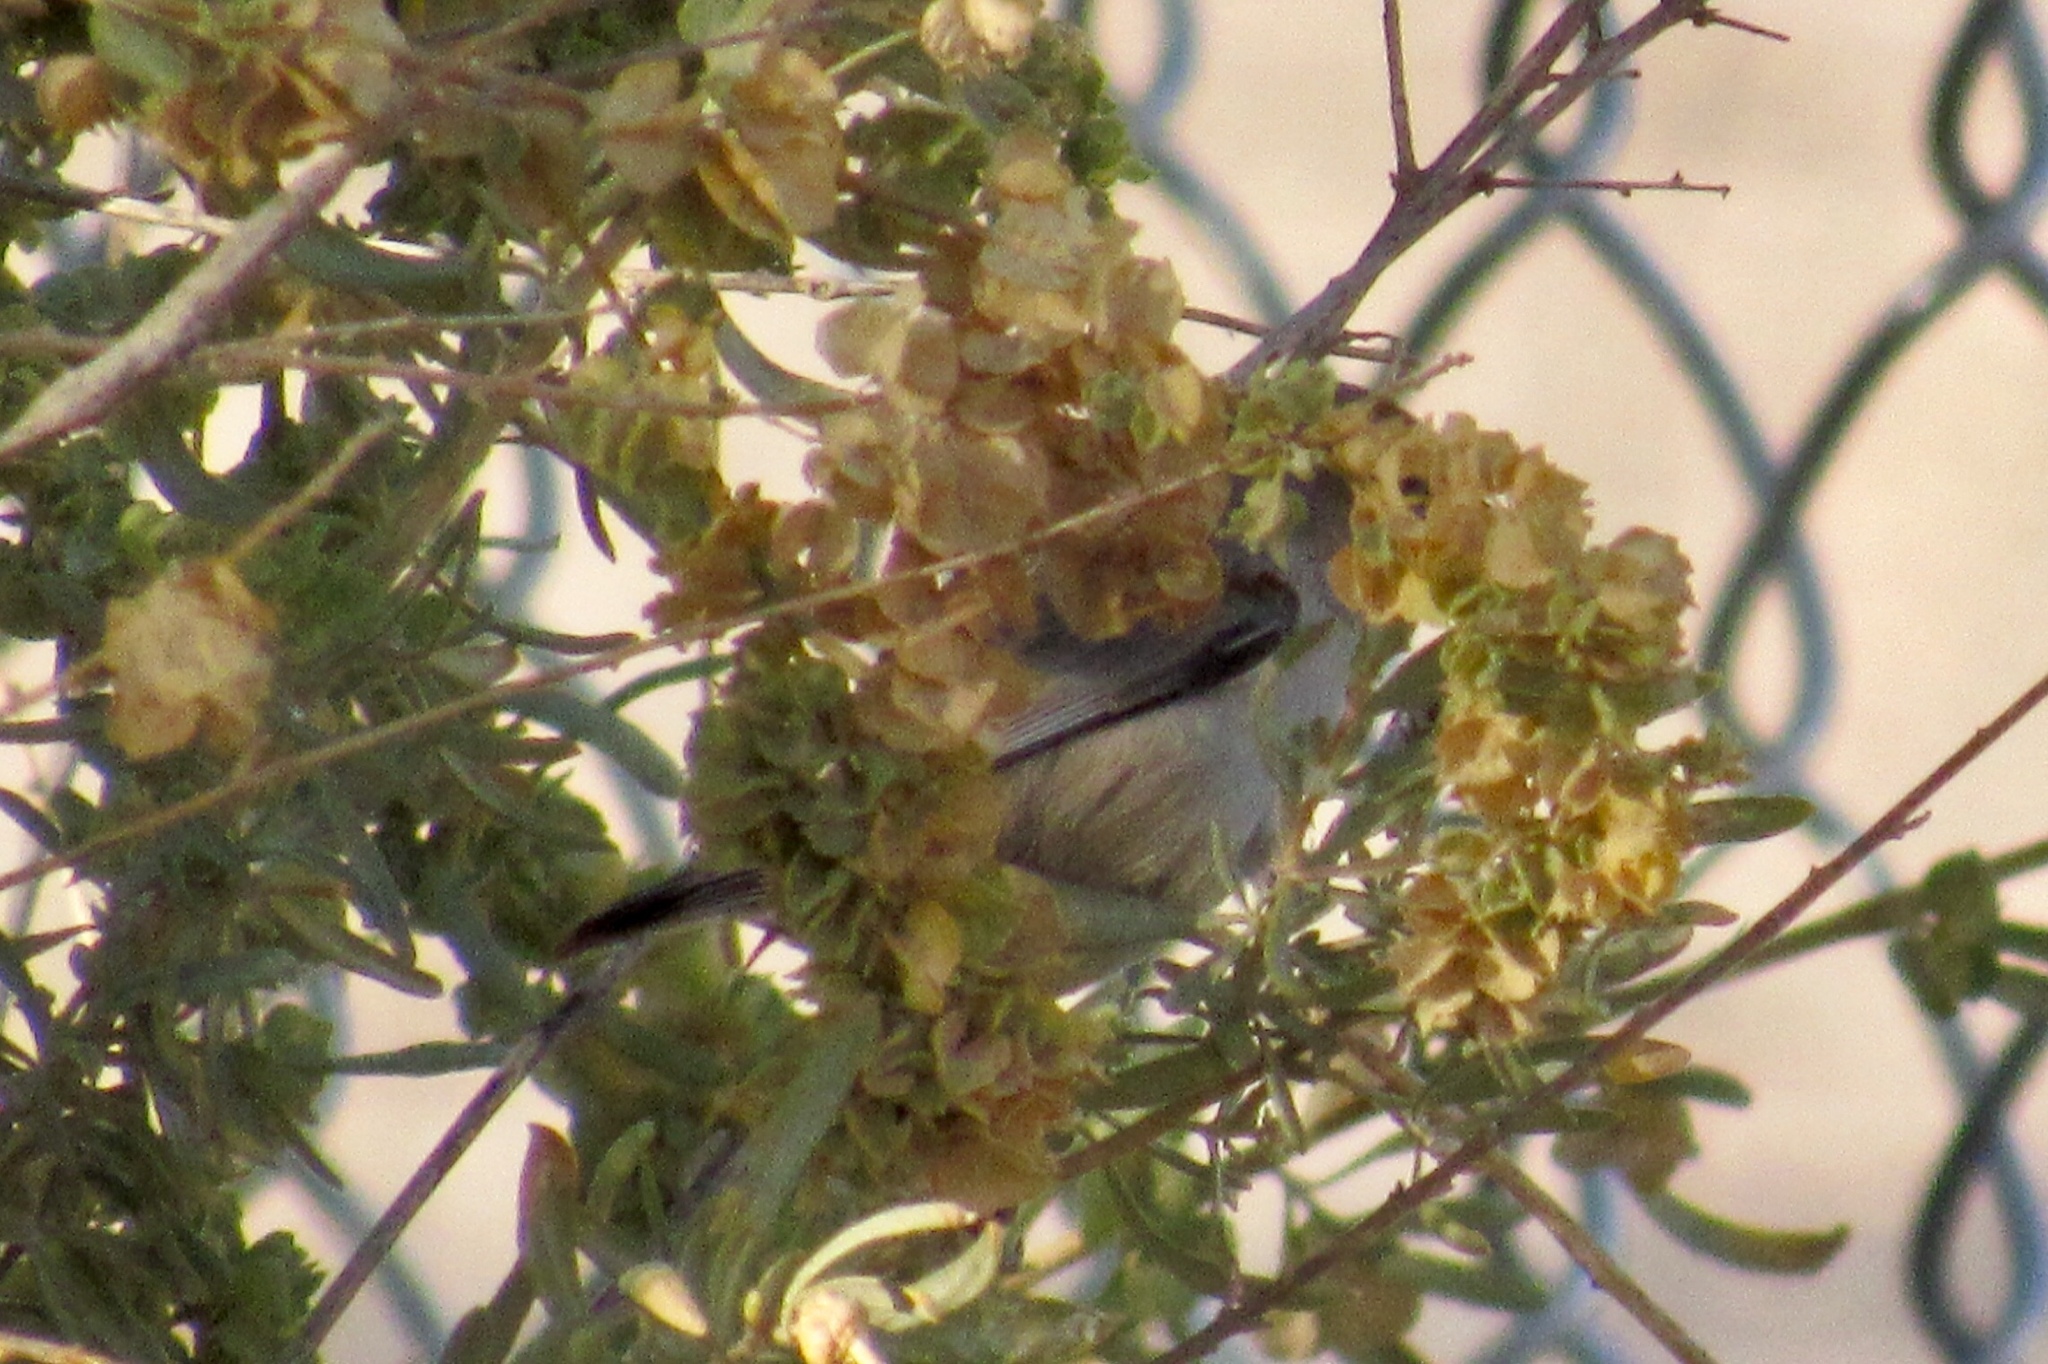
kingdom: Animalia
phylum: Chordata
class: Aves
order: Passeriformes
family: Remizidae
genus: Auriparus
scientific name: Auriparus flaviceps
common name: Verdin
